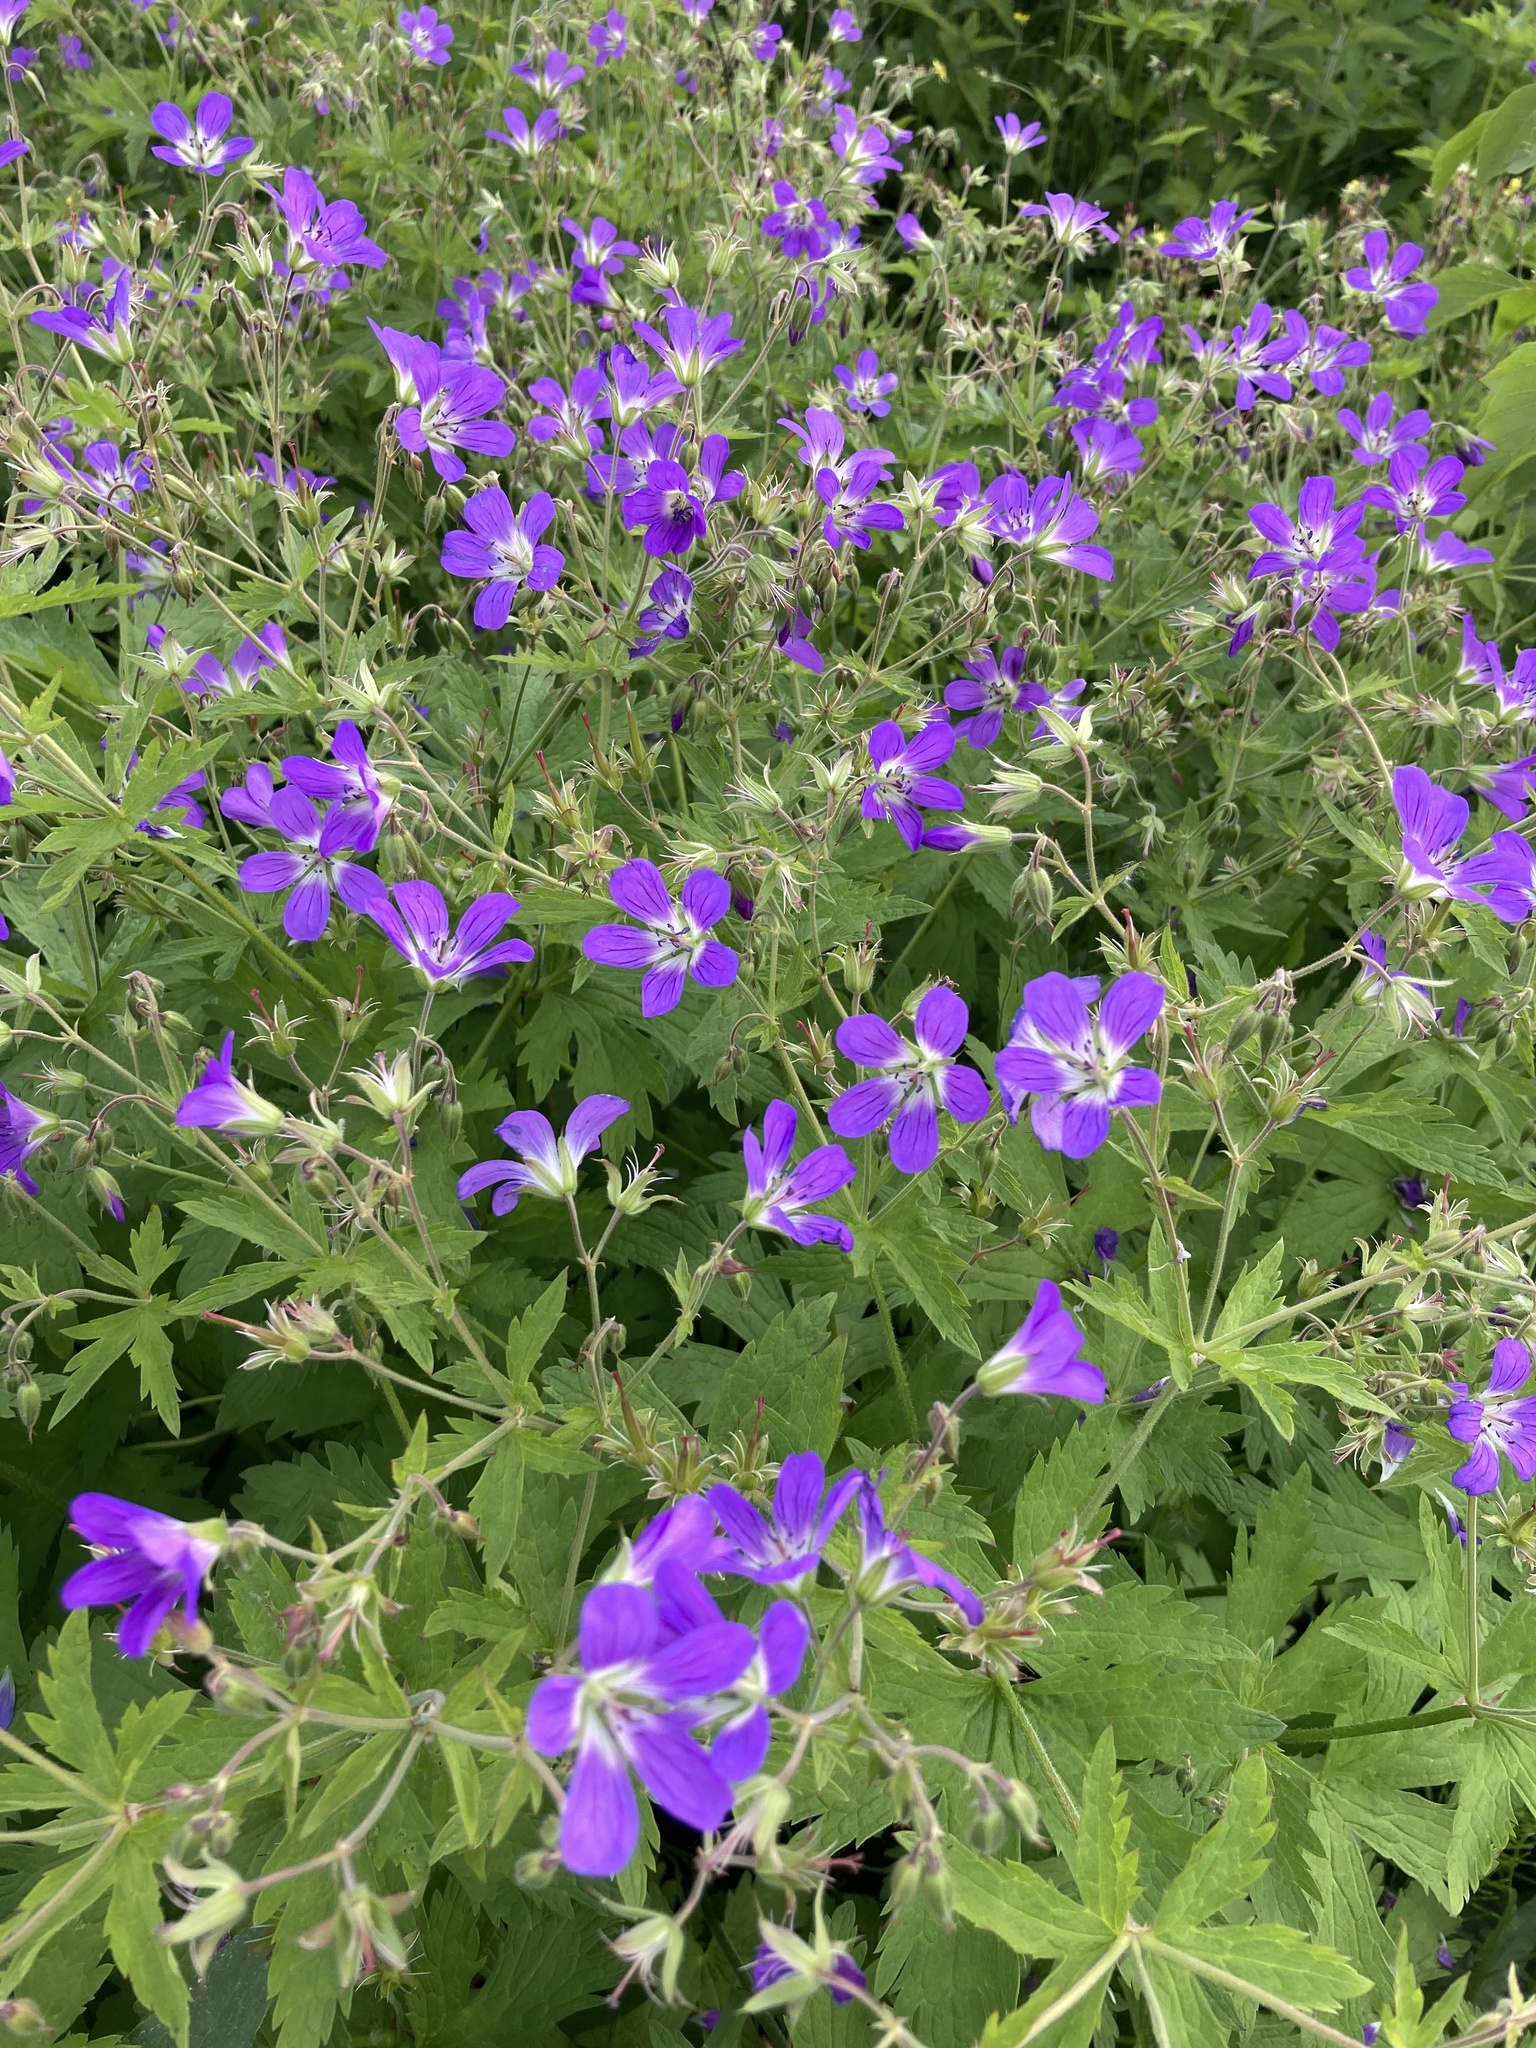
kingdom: Plantae
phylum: Tracheophyta
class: Magnoliopsida
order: Geraniales
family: Geraniaceae
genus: Geranium
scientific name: Geranium sylvaticum
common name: Wood crane's-bill
